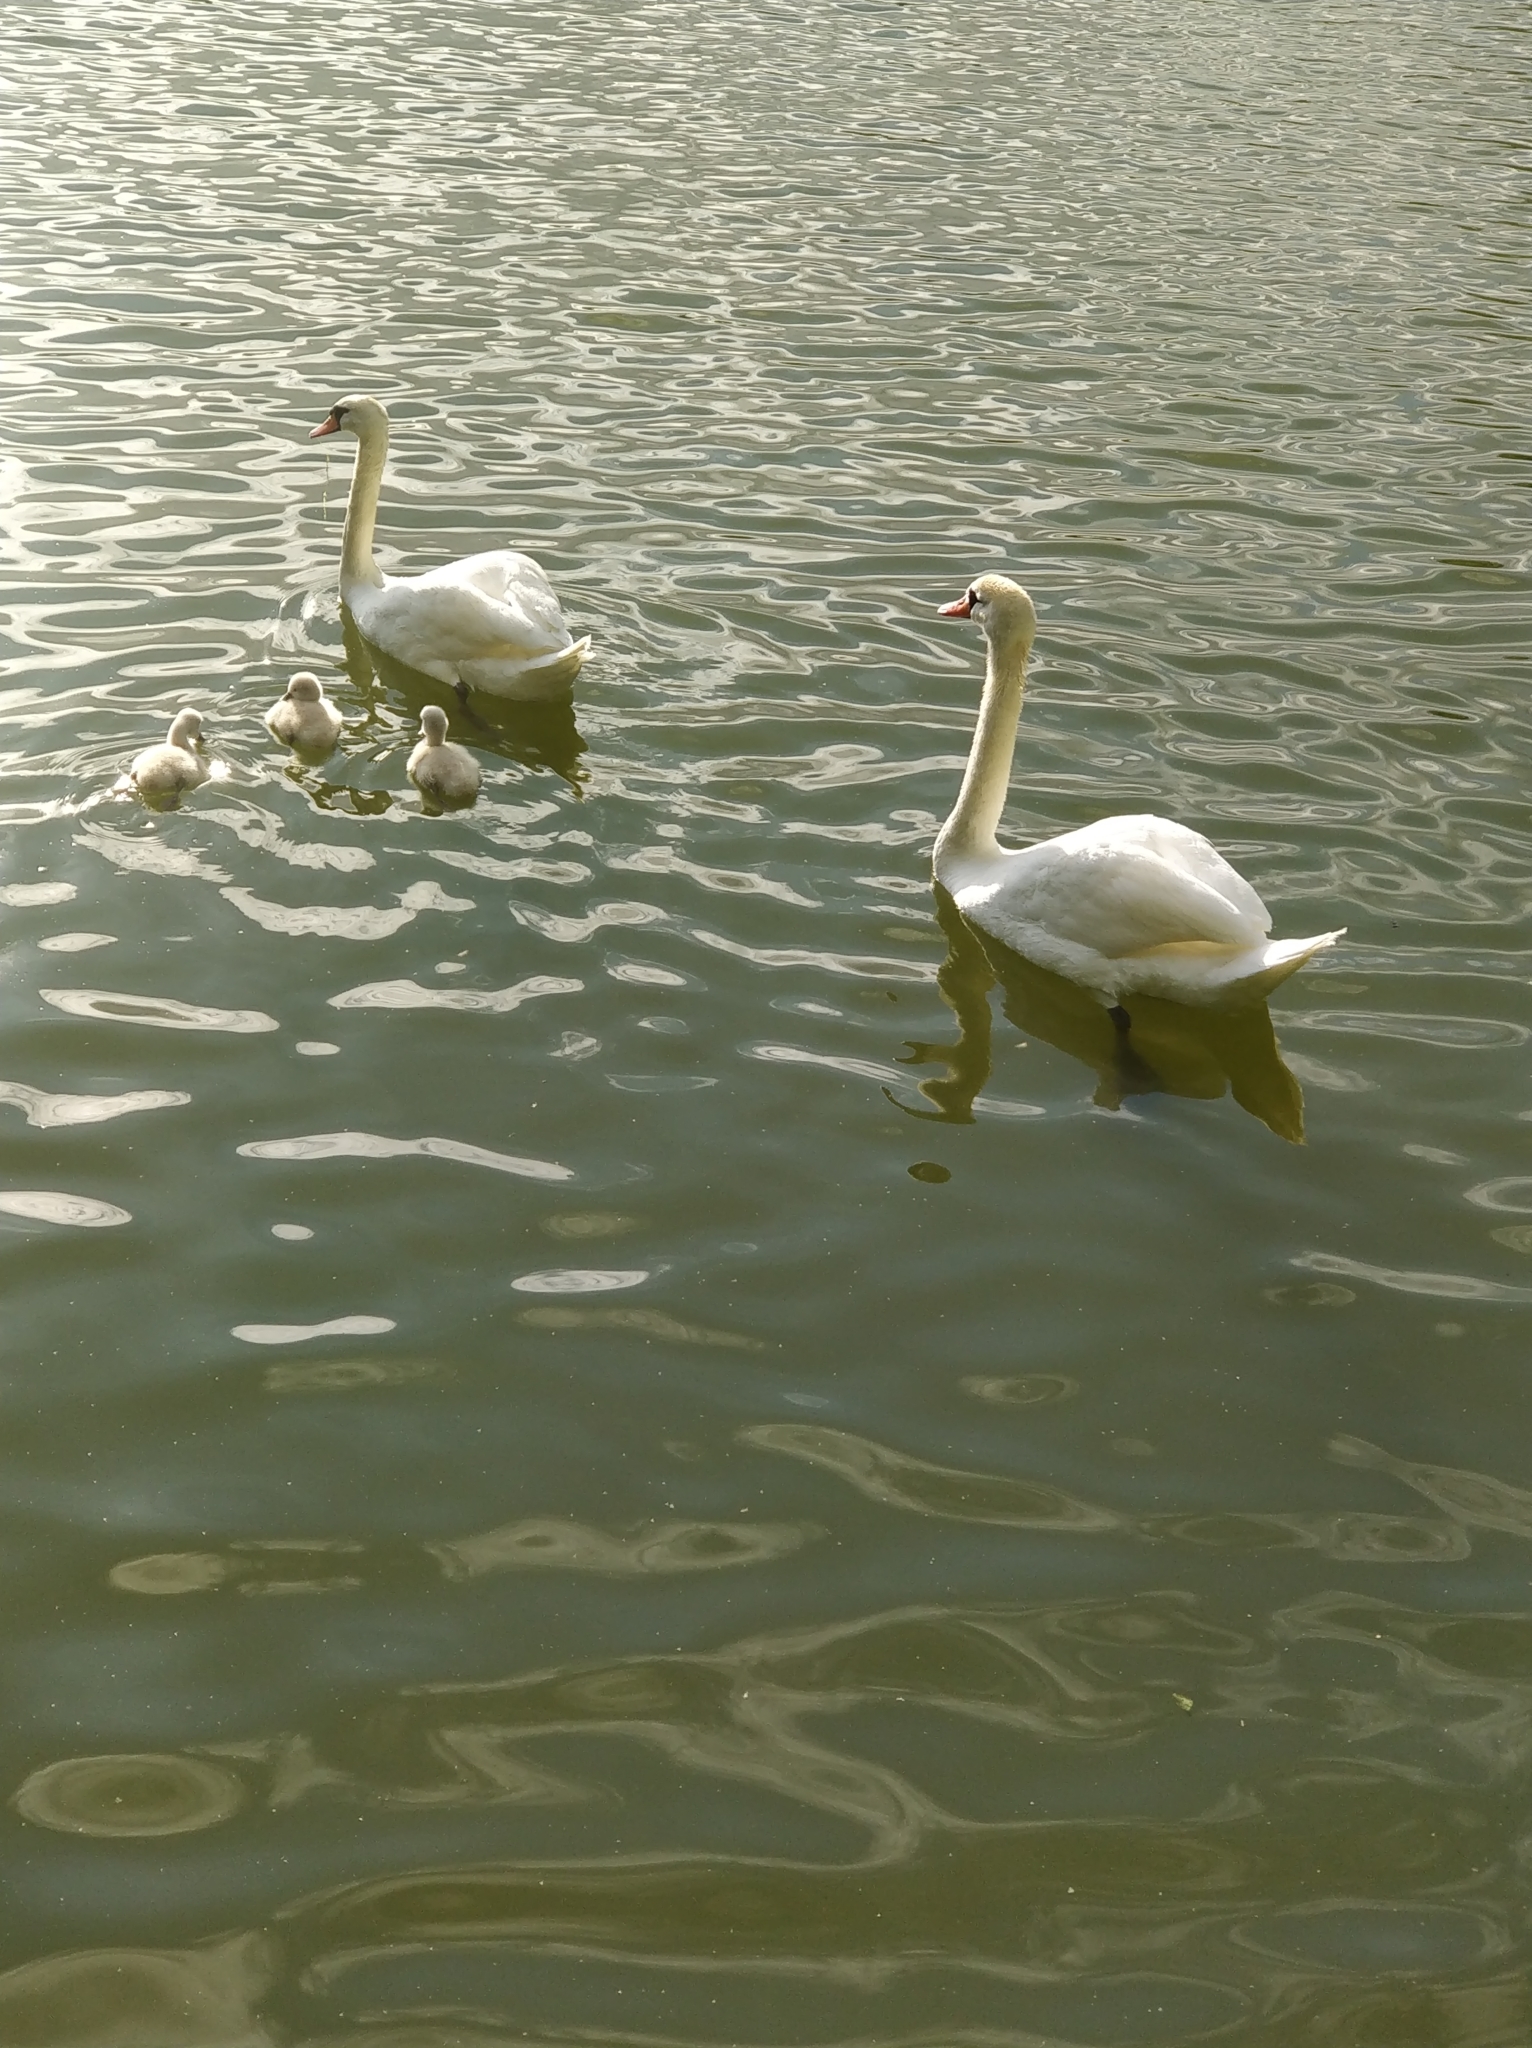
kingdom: Animalia
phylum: Chordata
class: Aves
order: Anseriformes
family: Anatidae
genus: Cygnus
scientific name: Cygnus olor
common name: Mute swan
